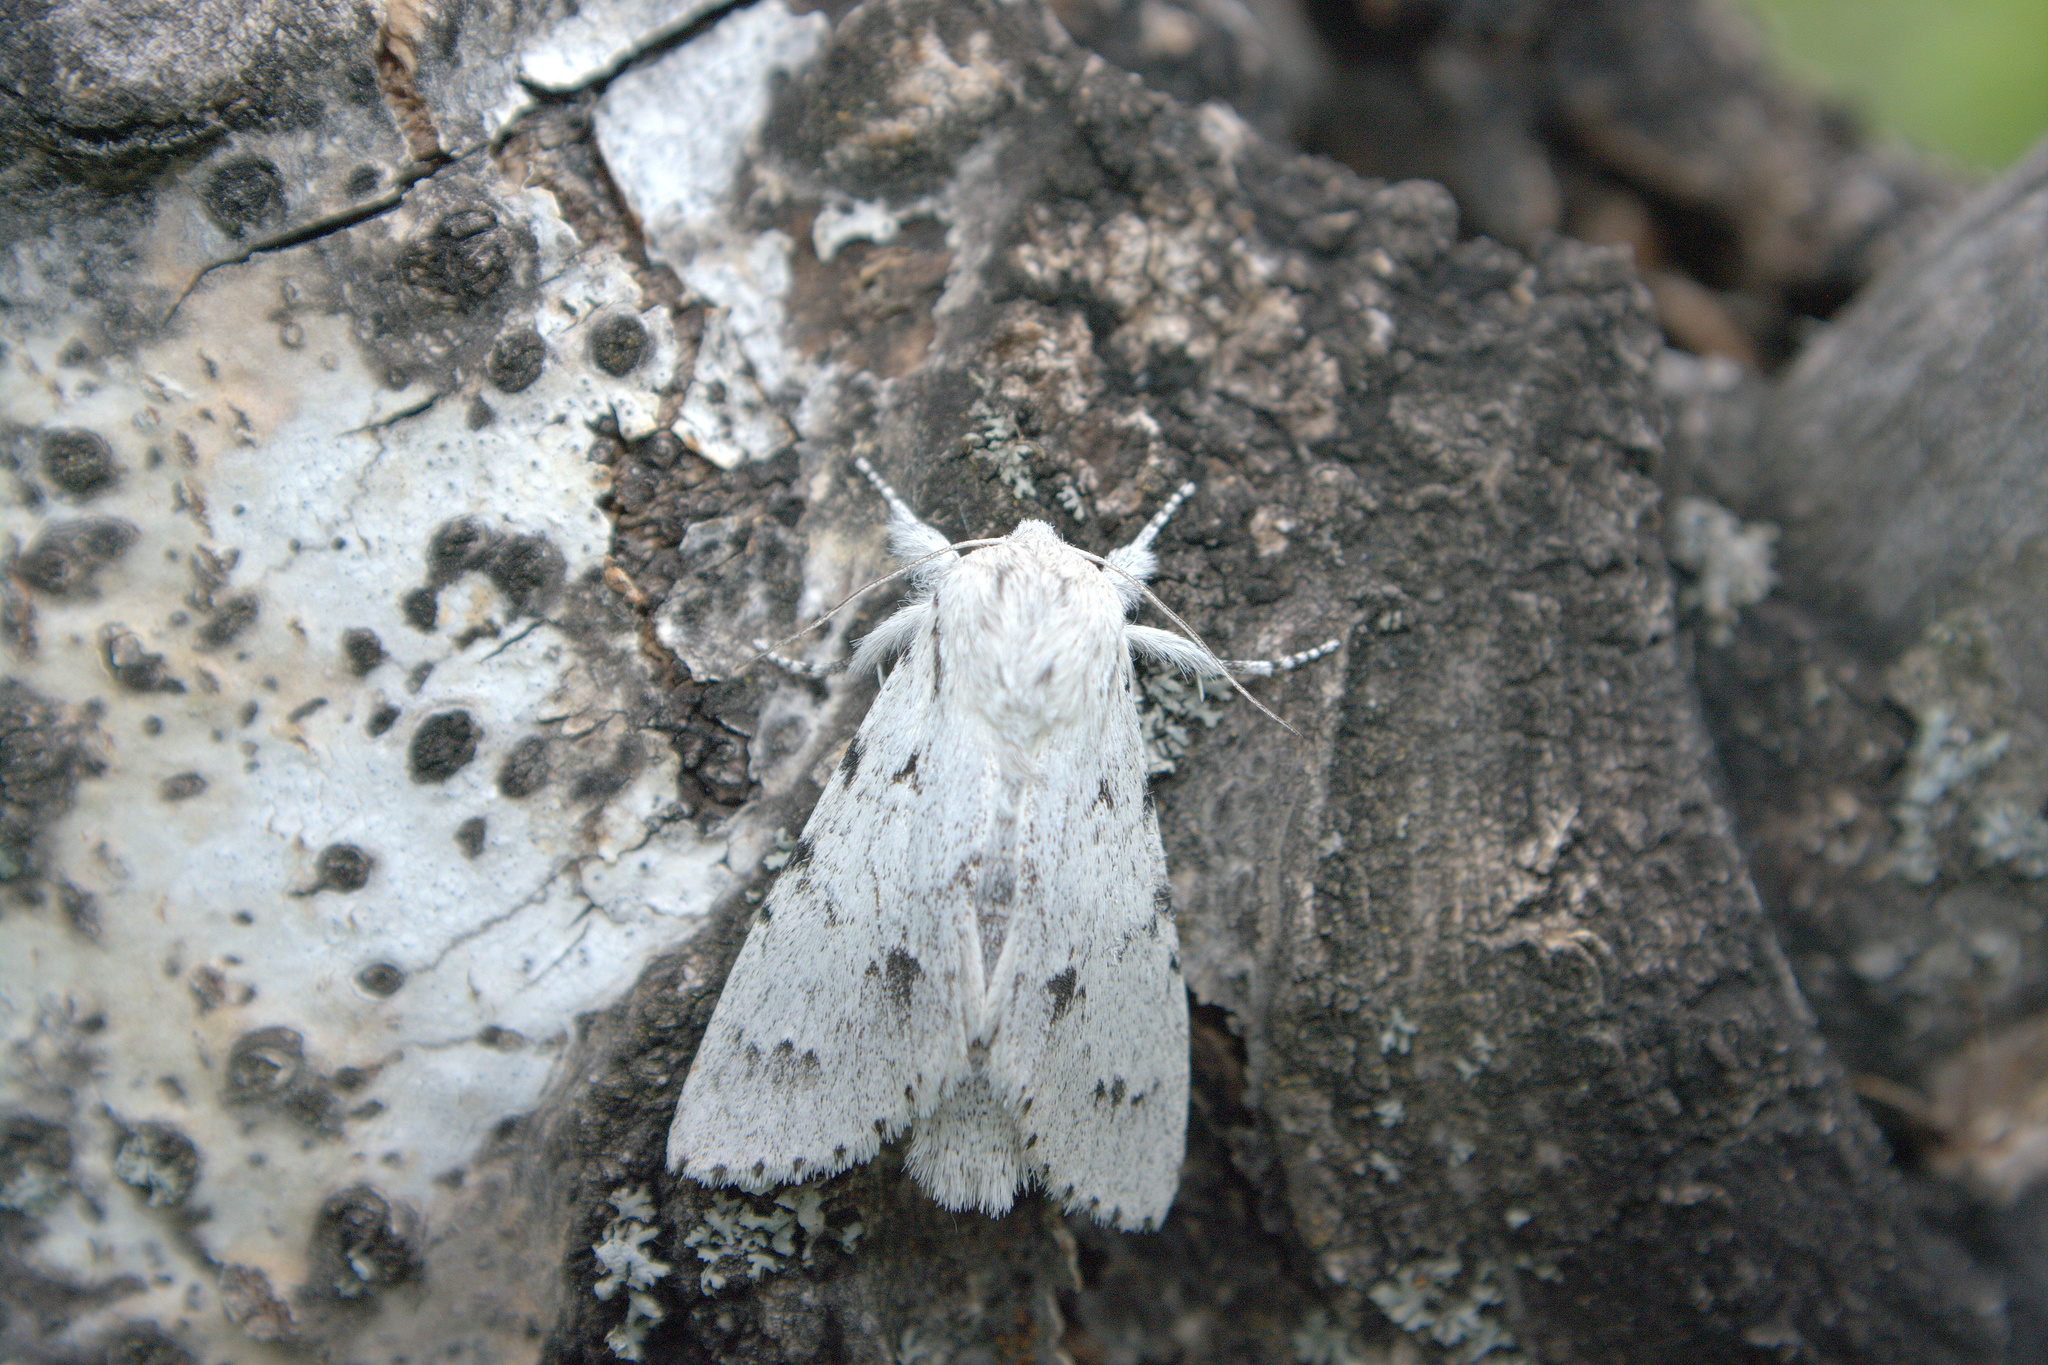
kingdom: Animalia
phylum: Arthropoda
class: Insecta
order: Lepidoptera
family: Noctuidae
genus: Acronicta
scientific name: Acronicta lepusculina
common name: Cottonwood dagger
